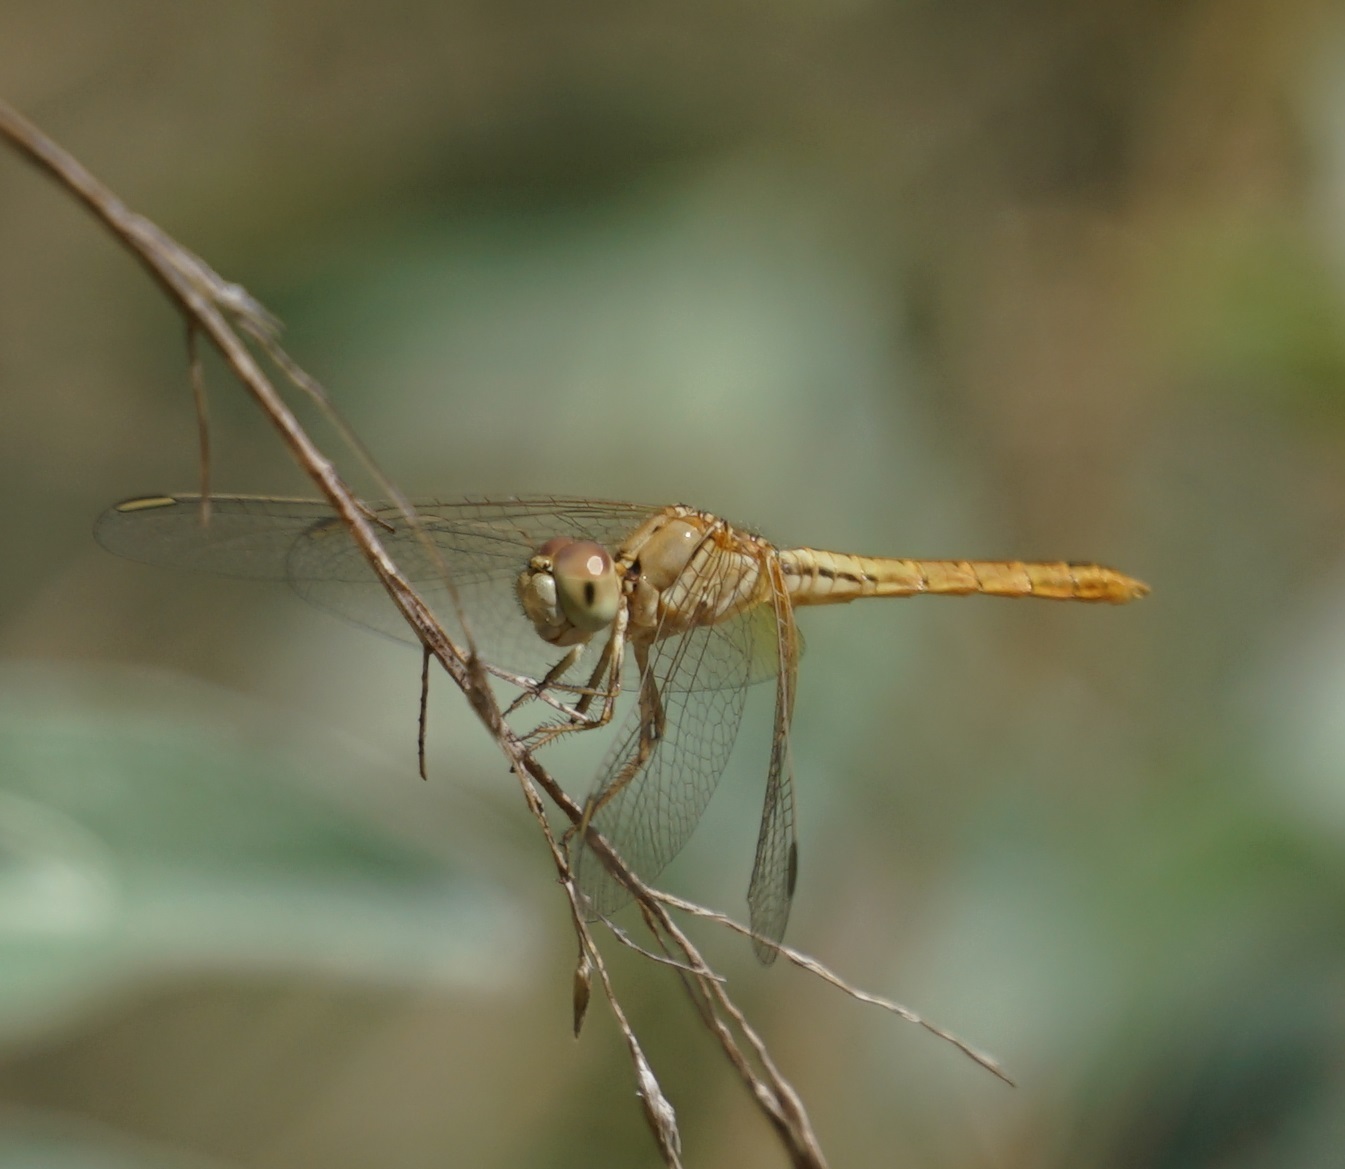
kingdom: Animalia
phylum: Arthropoda
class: Insecta
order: Odonata
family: Libellulidae
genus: Diplacodes
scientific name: Diplacodes haematodes
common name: Scarlet percher
